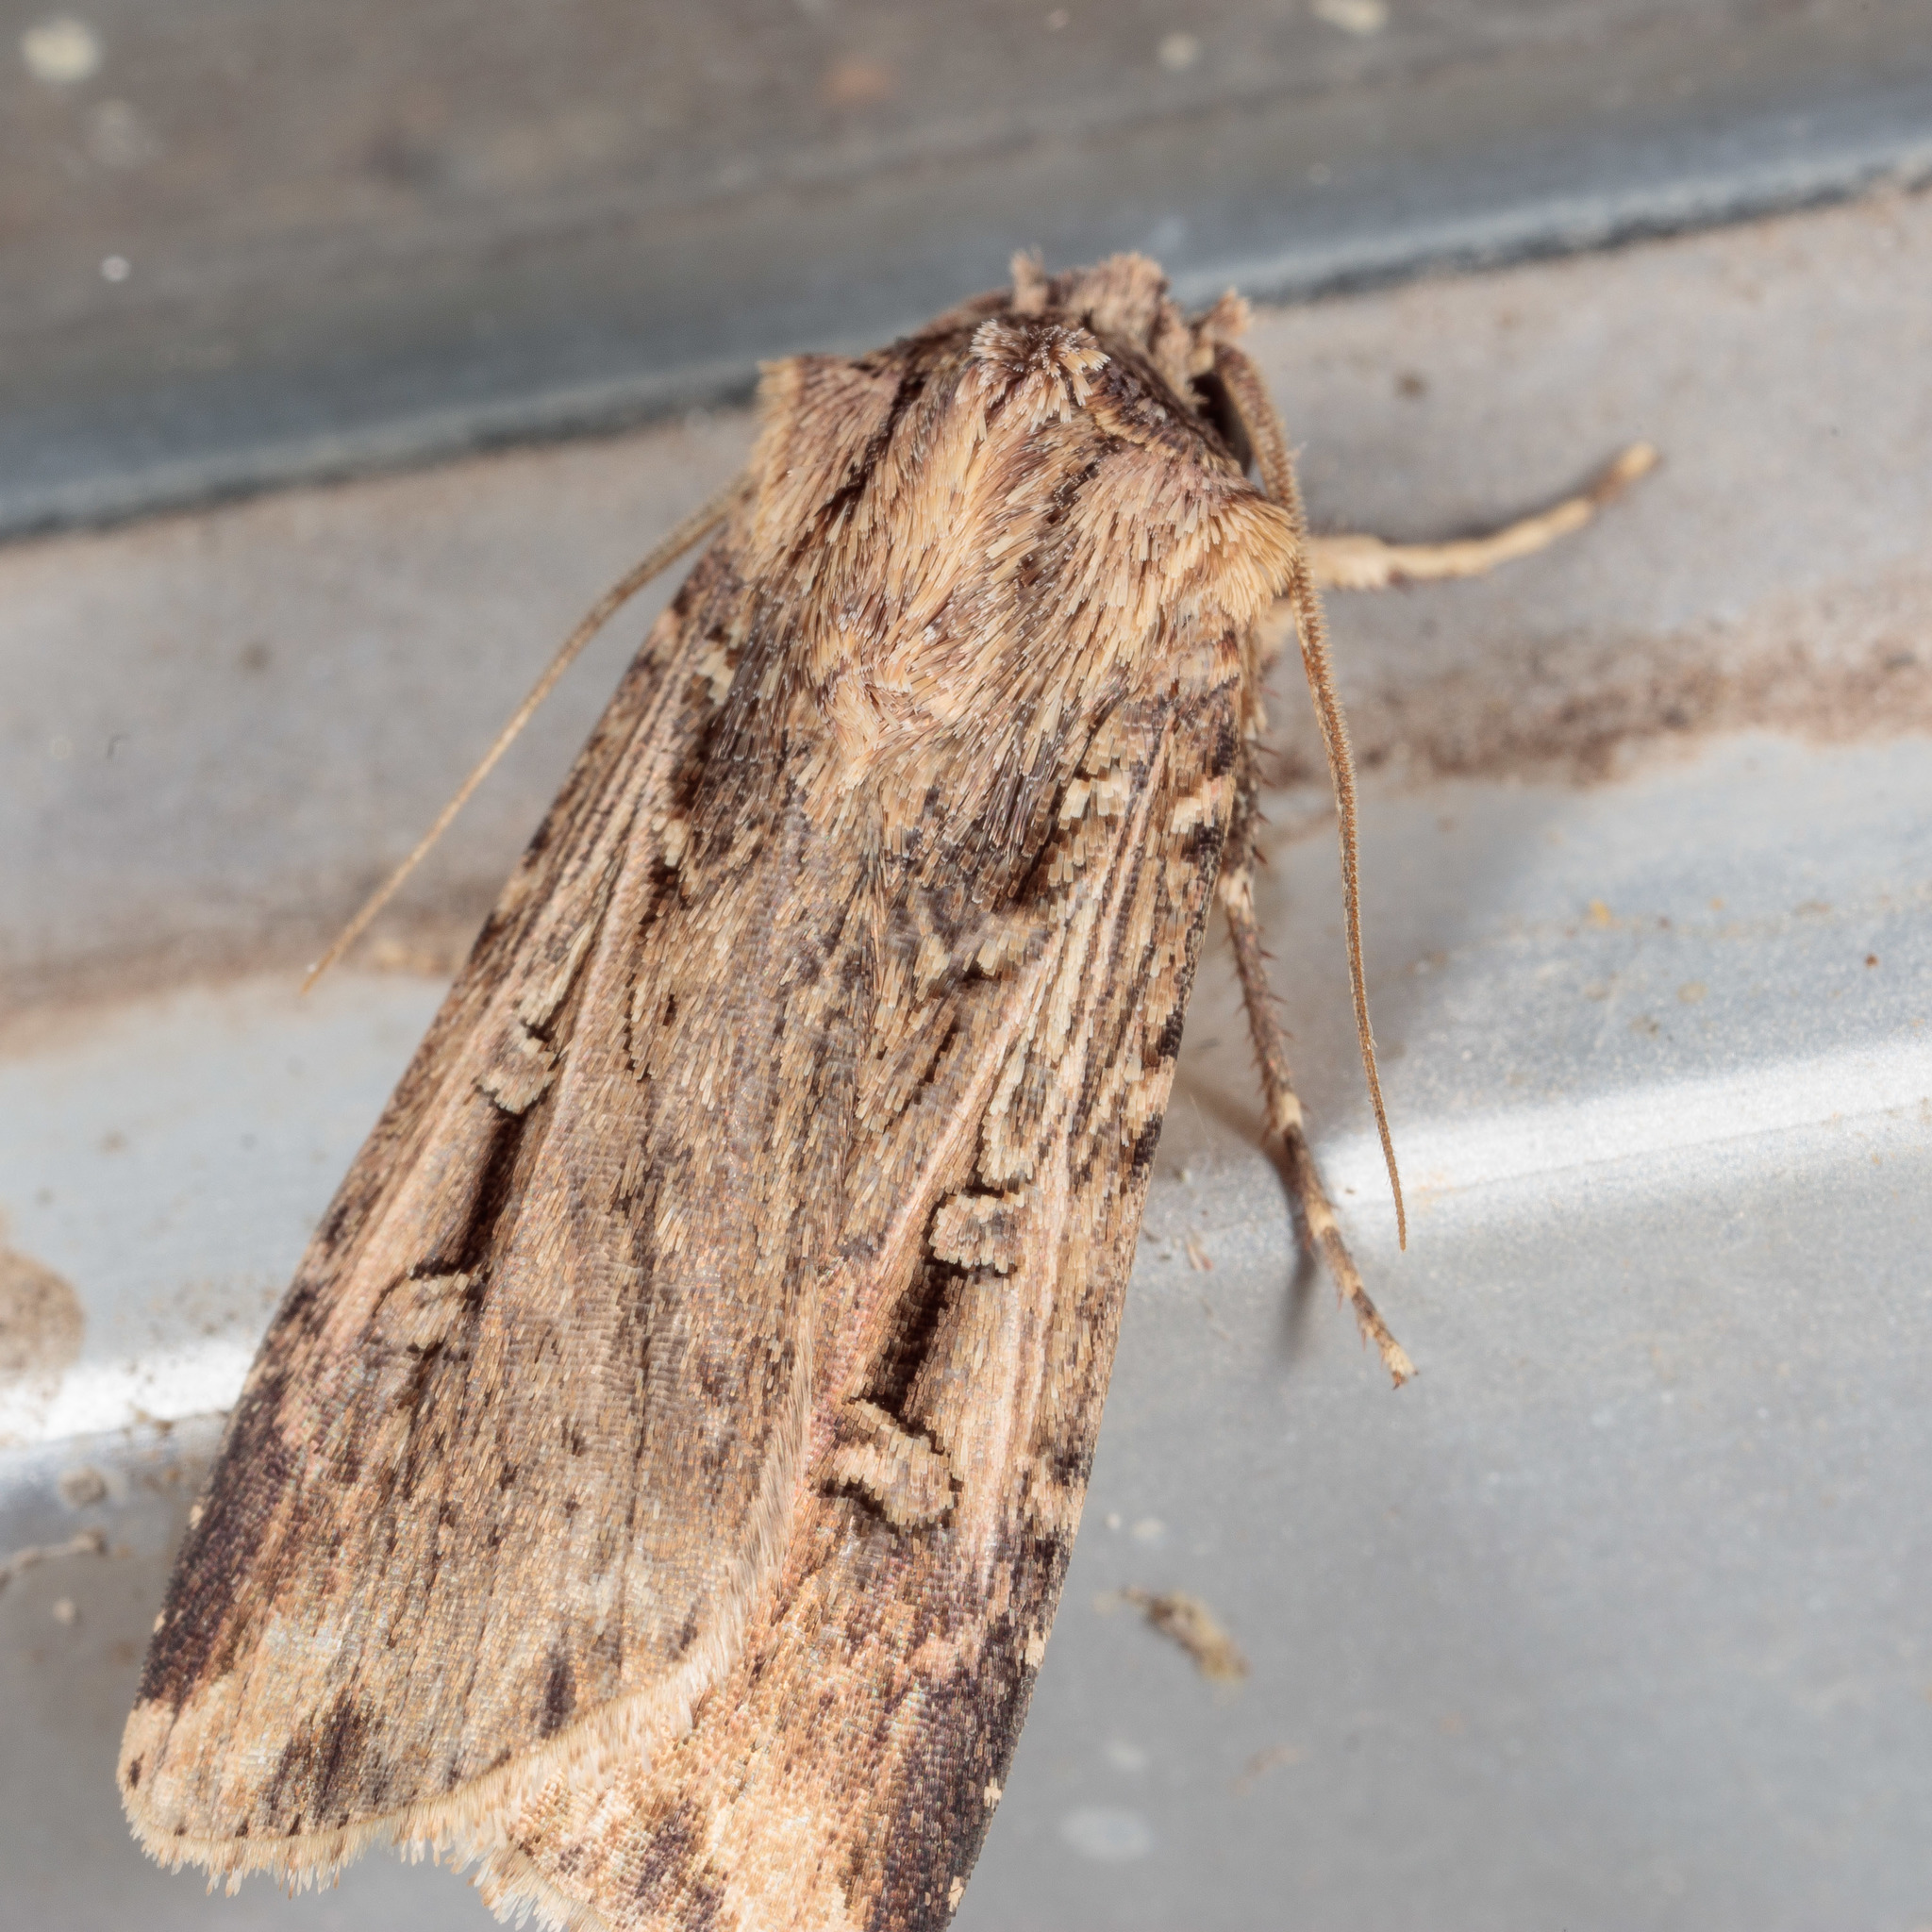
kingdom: Animalia
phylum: Arthropoda
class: Insecta
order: Lepidoptera
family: Noctuidae
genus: Feltia
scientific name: Feltia subterranea
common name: Granulate cutworm
